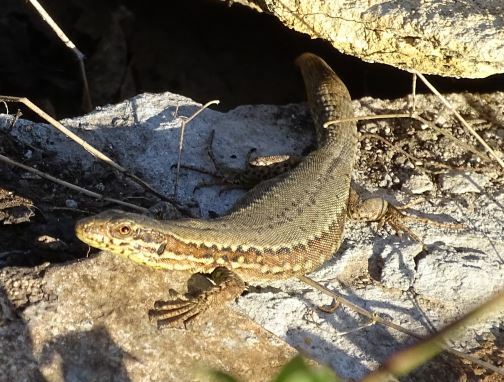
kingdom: Animalia
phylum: Chordata
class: Squamata
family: Lacertidae
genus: Podarcis
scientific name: Podarcis muralis
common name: Common wall lizard
